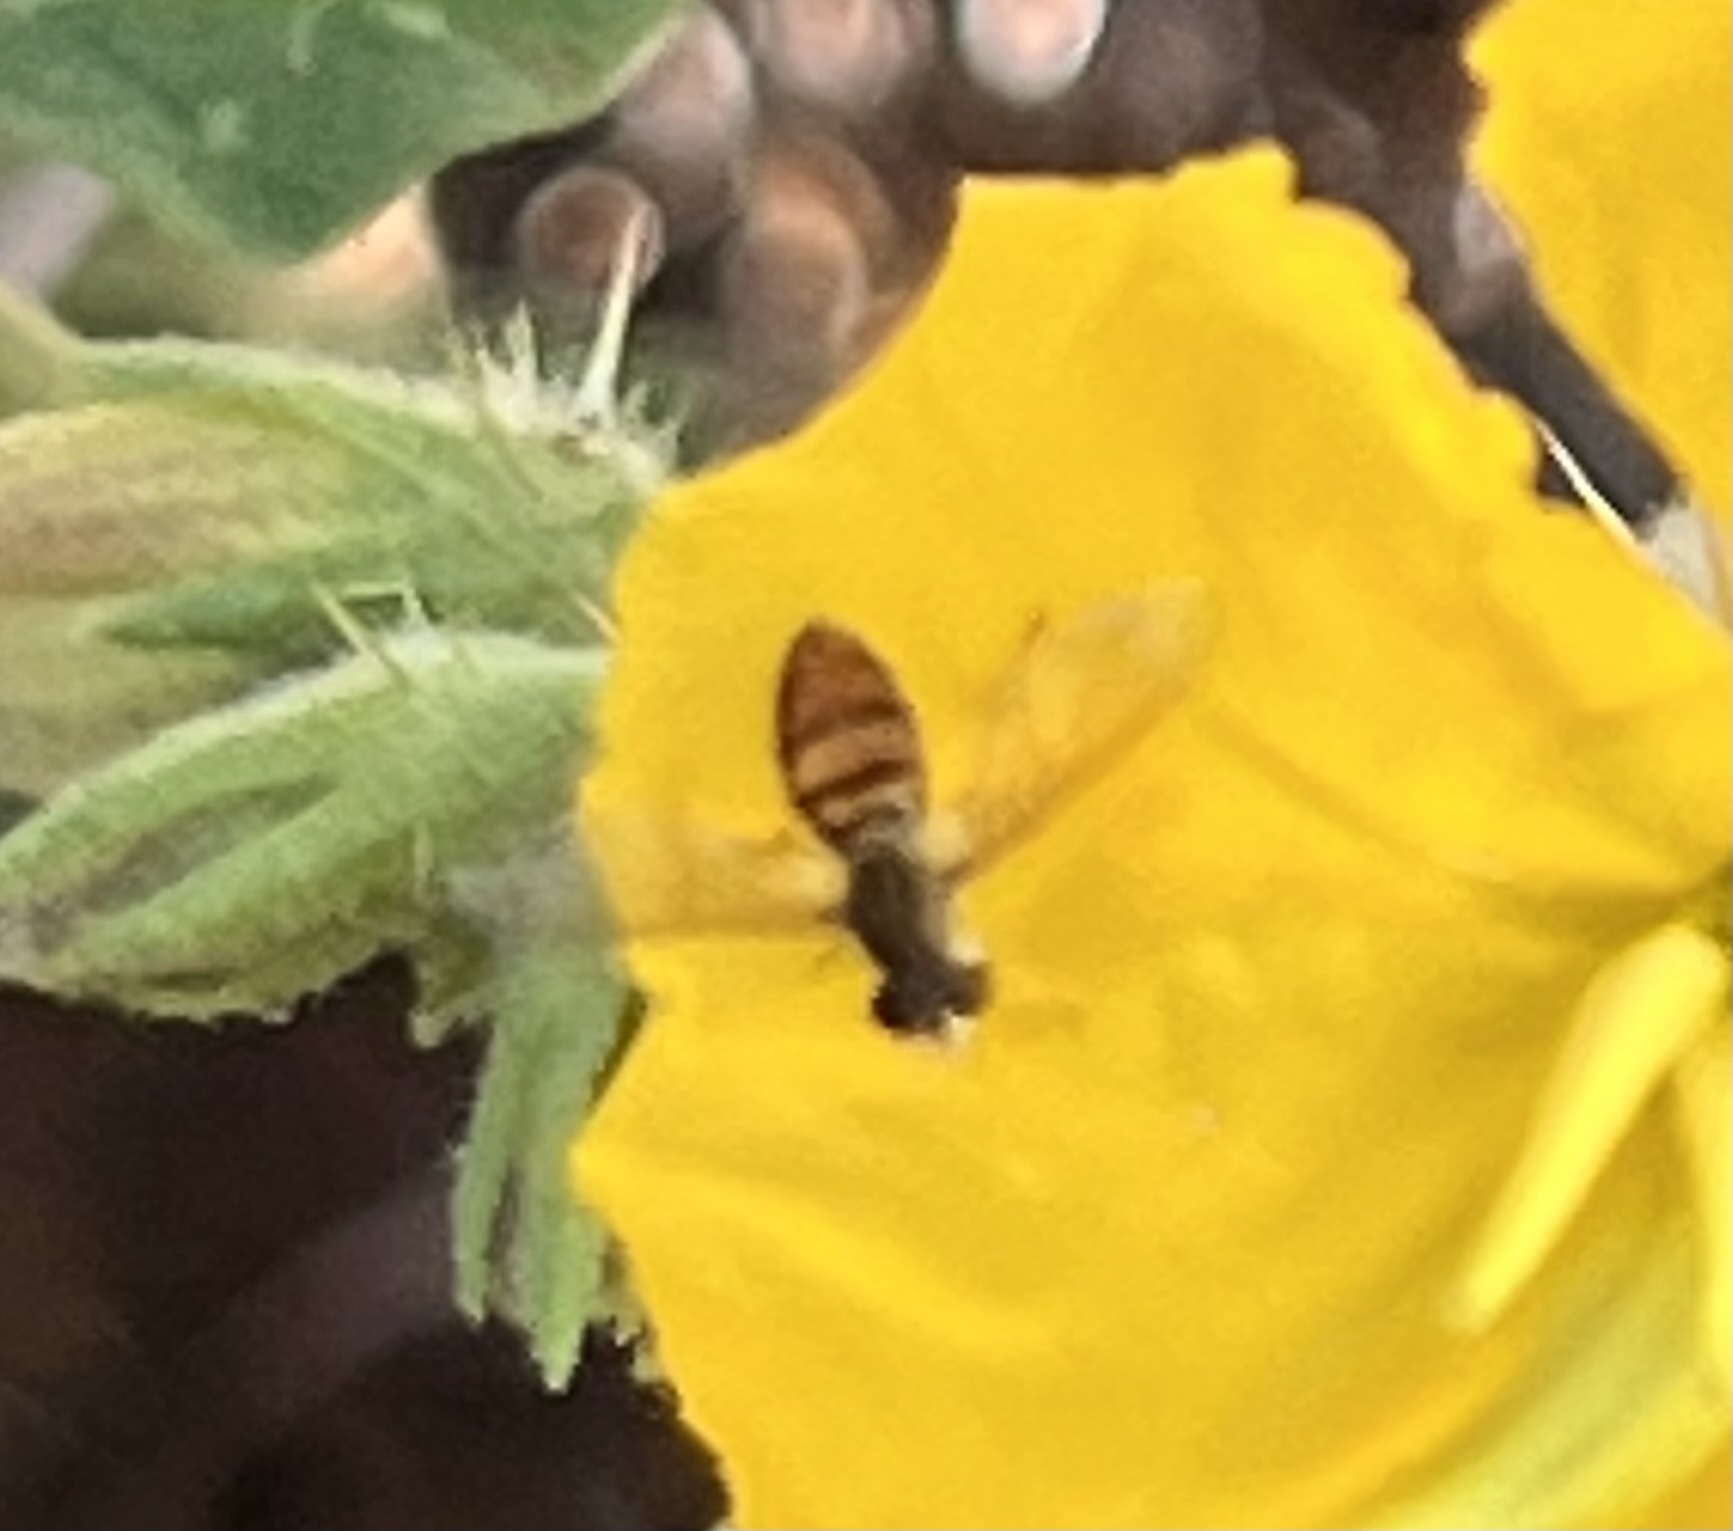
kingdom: Animalia
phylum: Arthropoda
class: Insecta
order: Diptera
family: Syrphidae
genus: Toxomerus
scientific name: Toxomerus marginatus
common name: Syrphid fly
